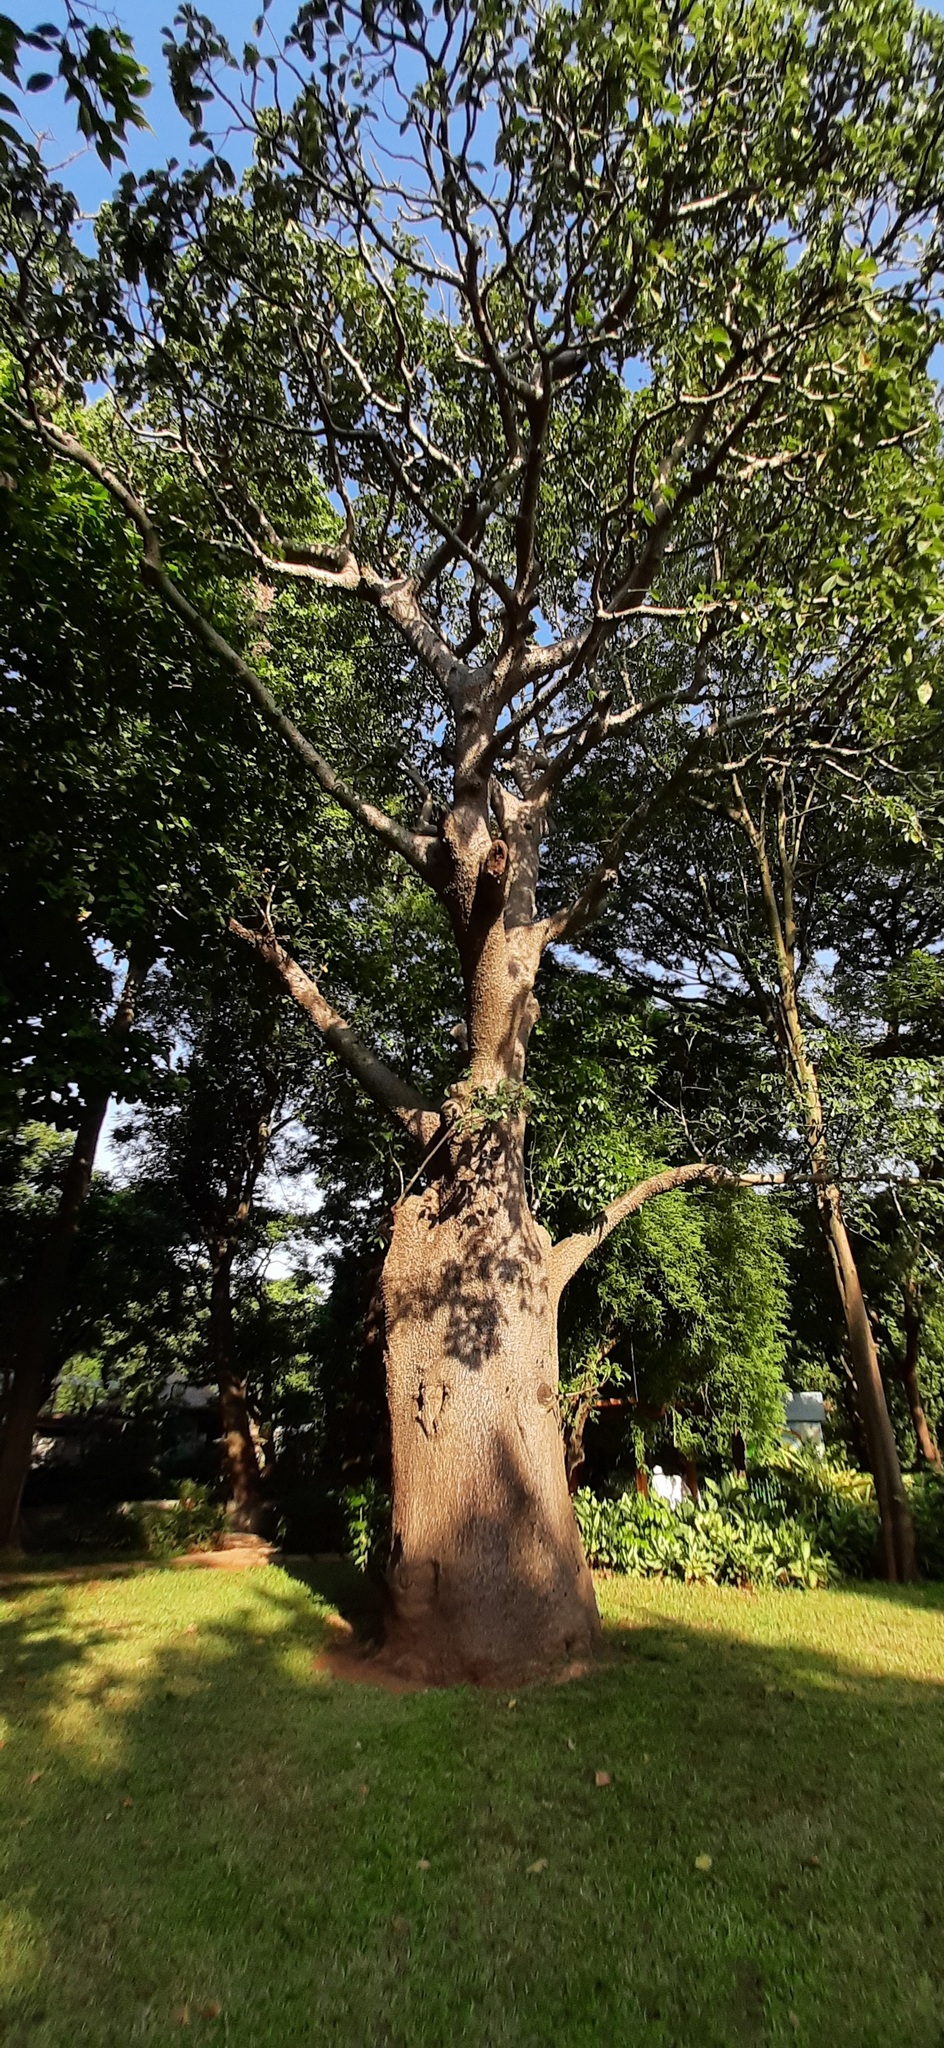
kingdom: Plantae
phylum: Tracheophyta
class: Magnoliopsida
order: Malvales
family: Malvaceae
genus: Adansonia
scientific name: Adansonia digitata
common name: Dead-rat-tree
